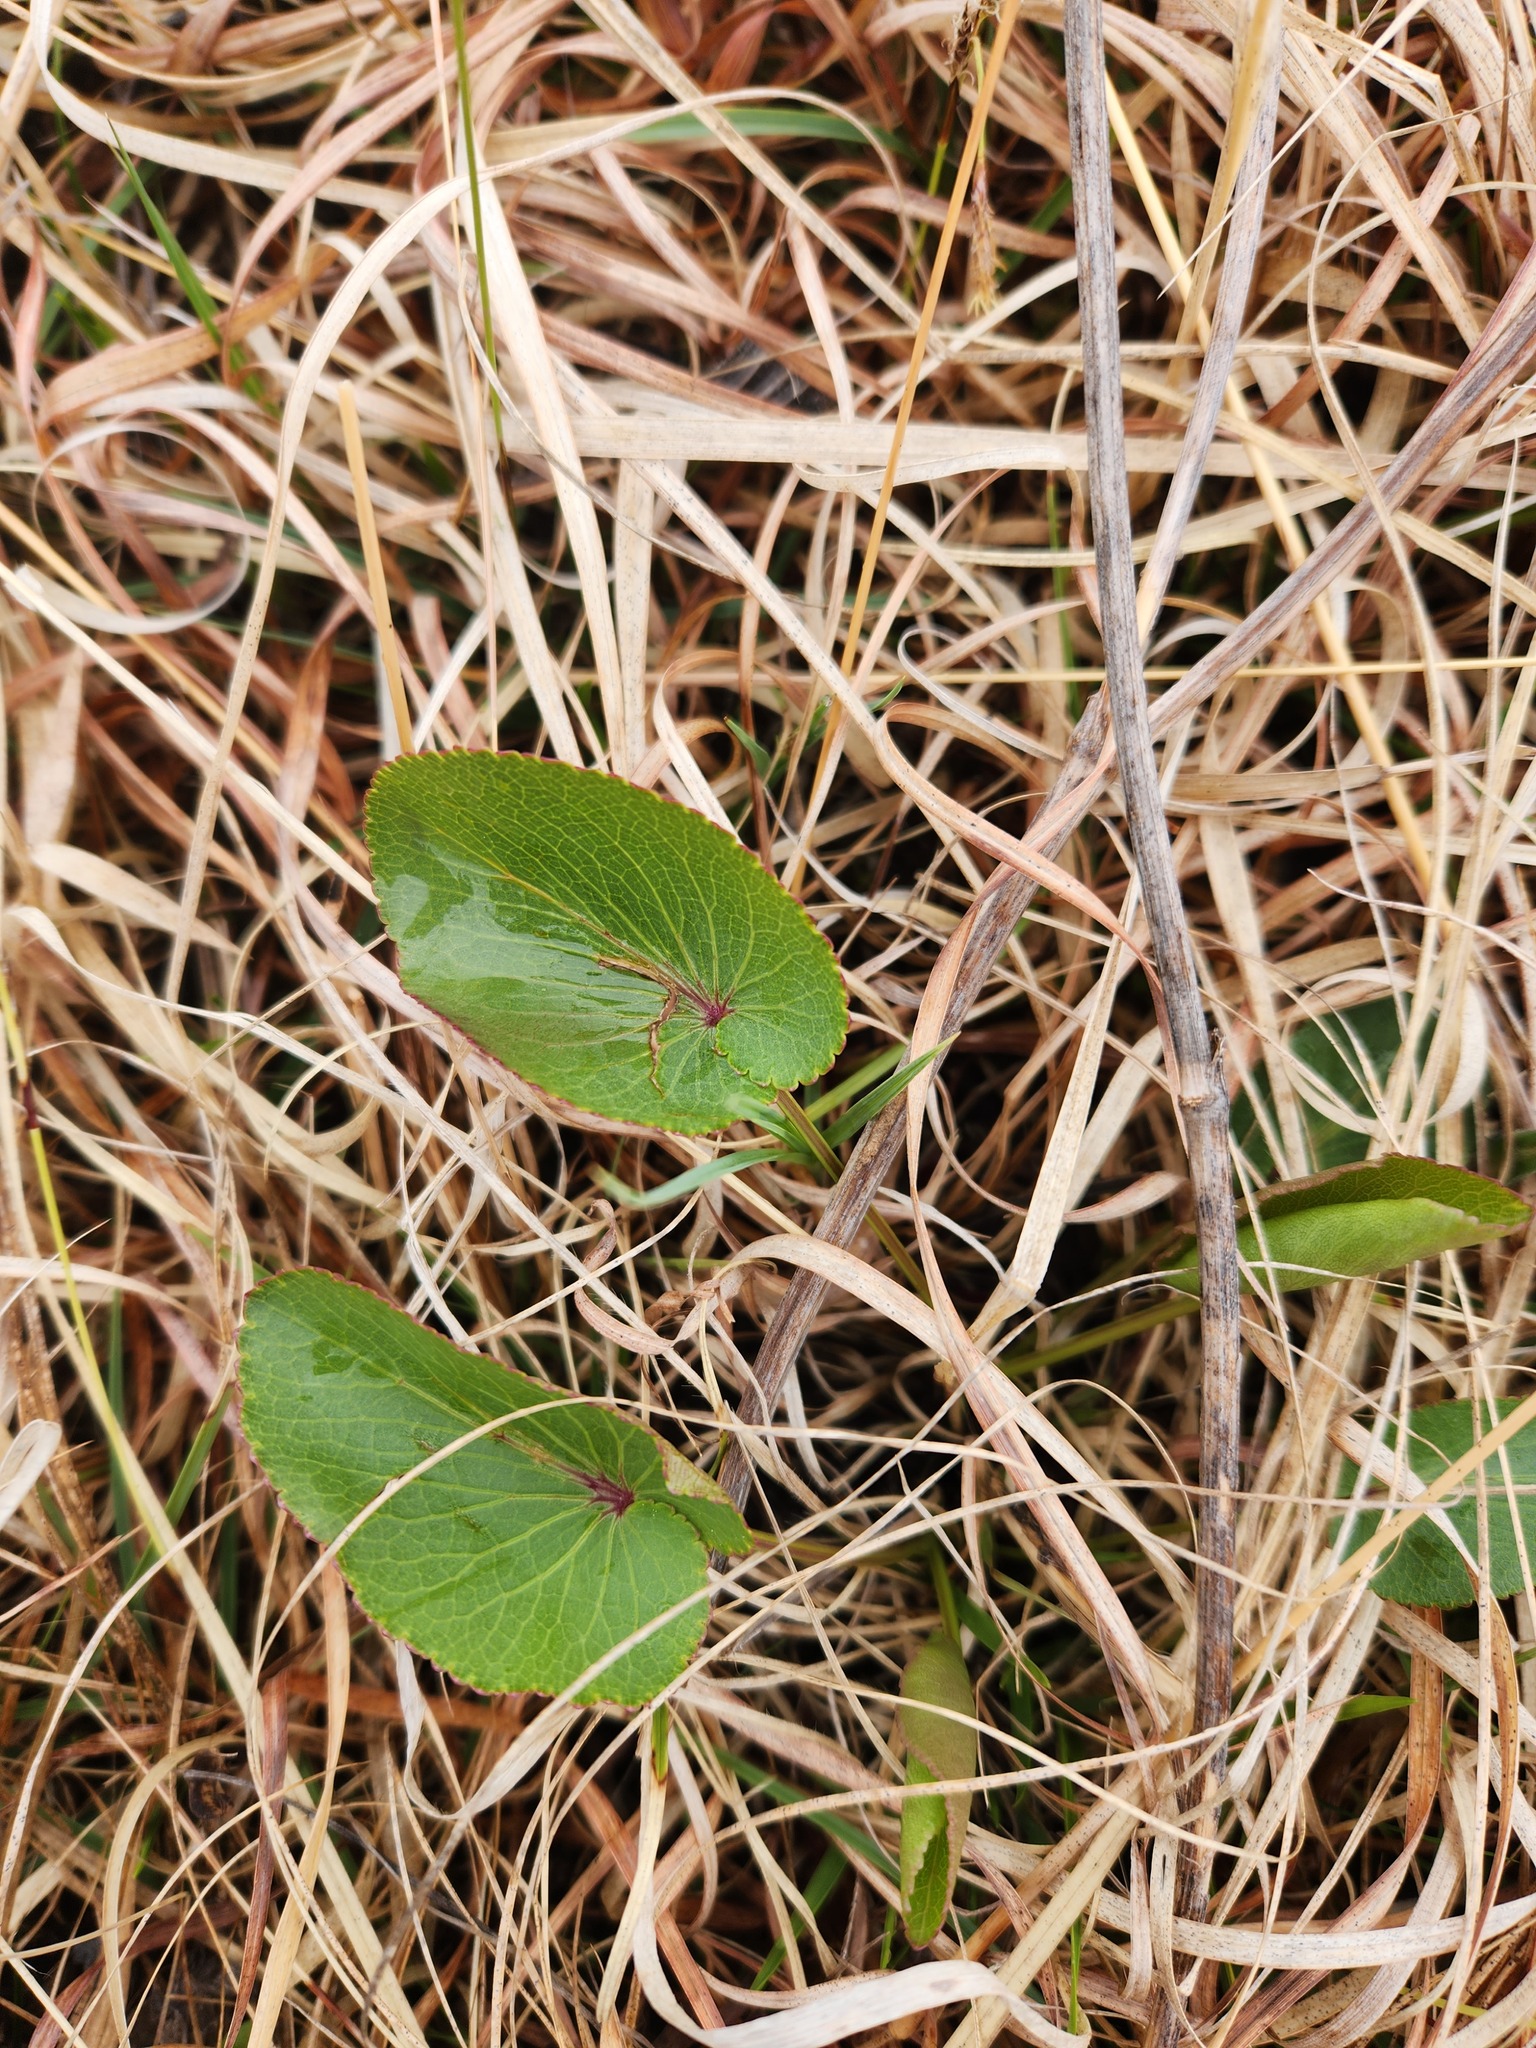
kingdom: Plantae
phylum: Tracheophyta
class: Magnoliopsida
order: Apiales
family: Apiaceae
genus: Zizia
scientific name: Zizia aptera
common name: Heart-leaved alexanders
